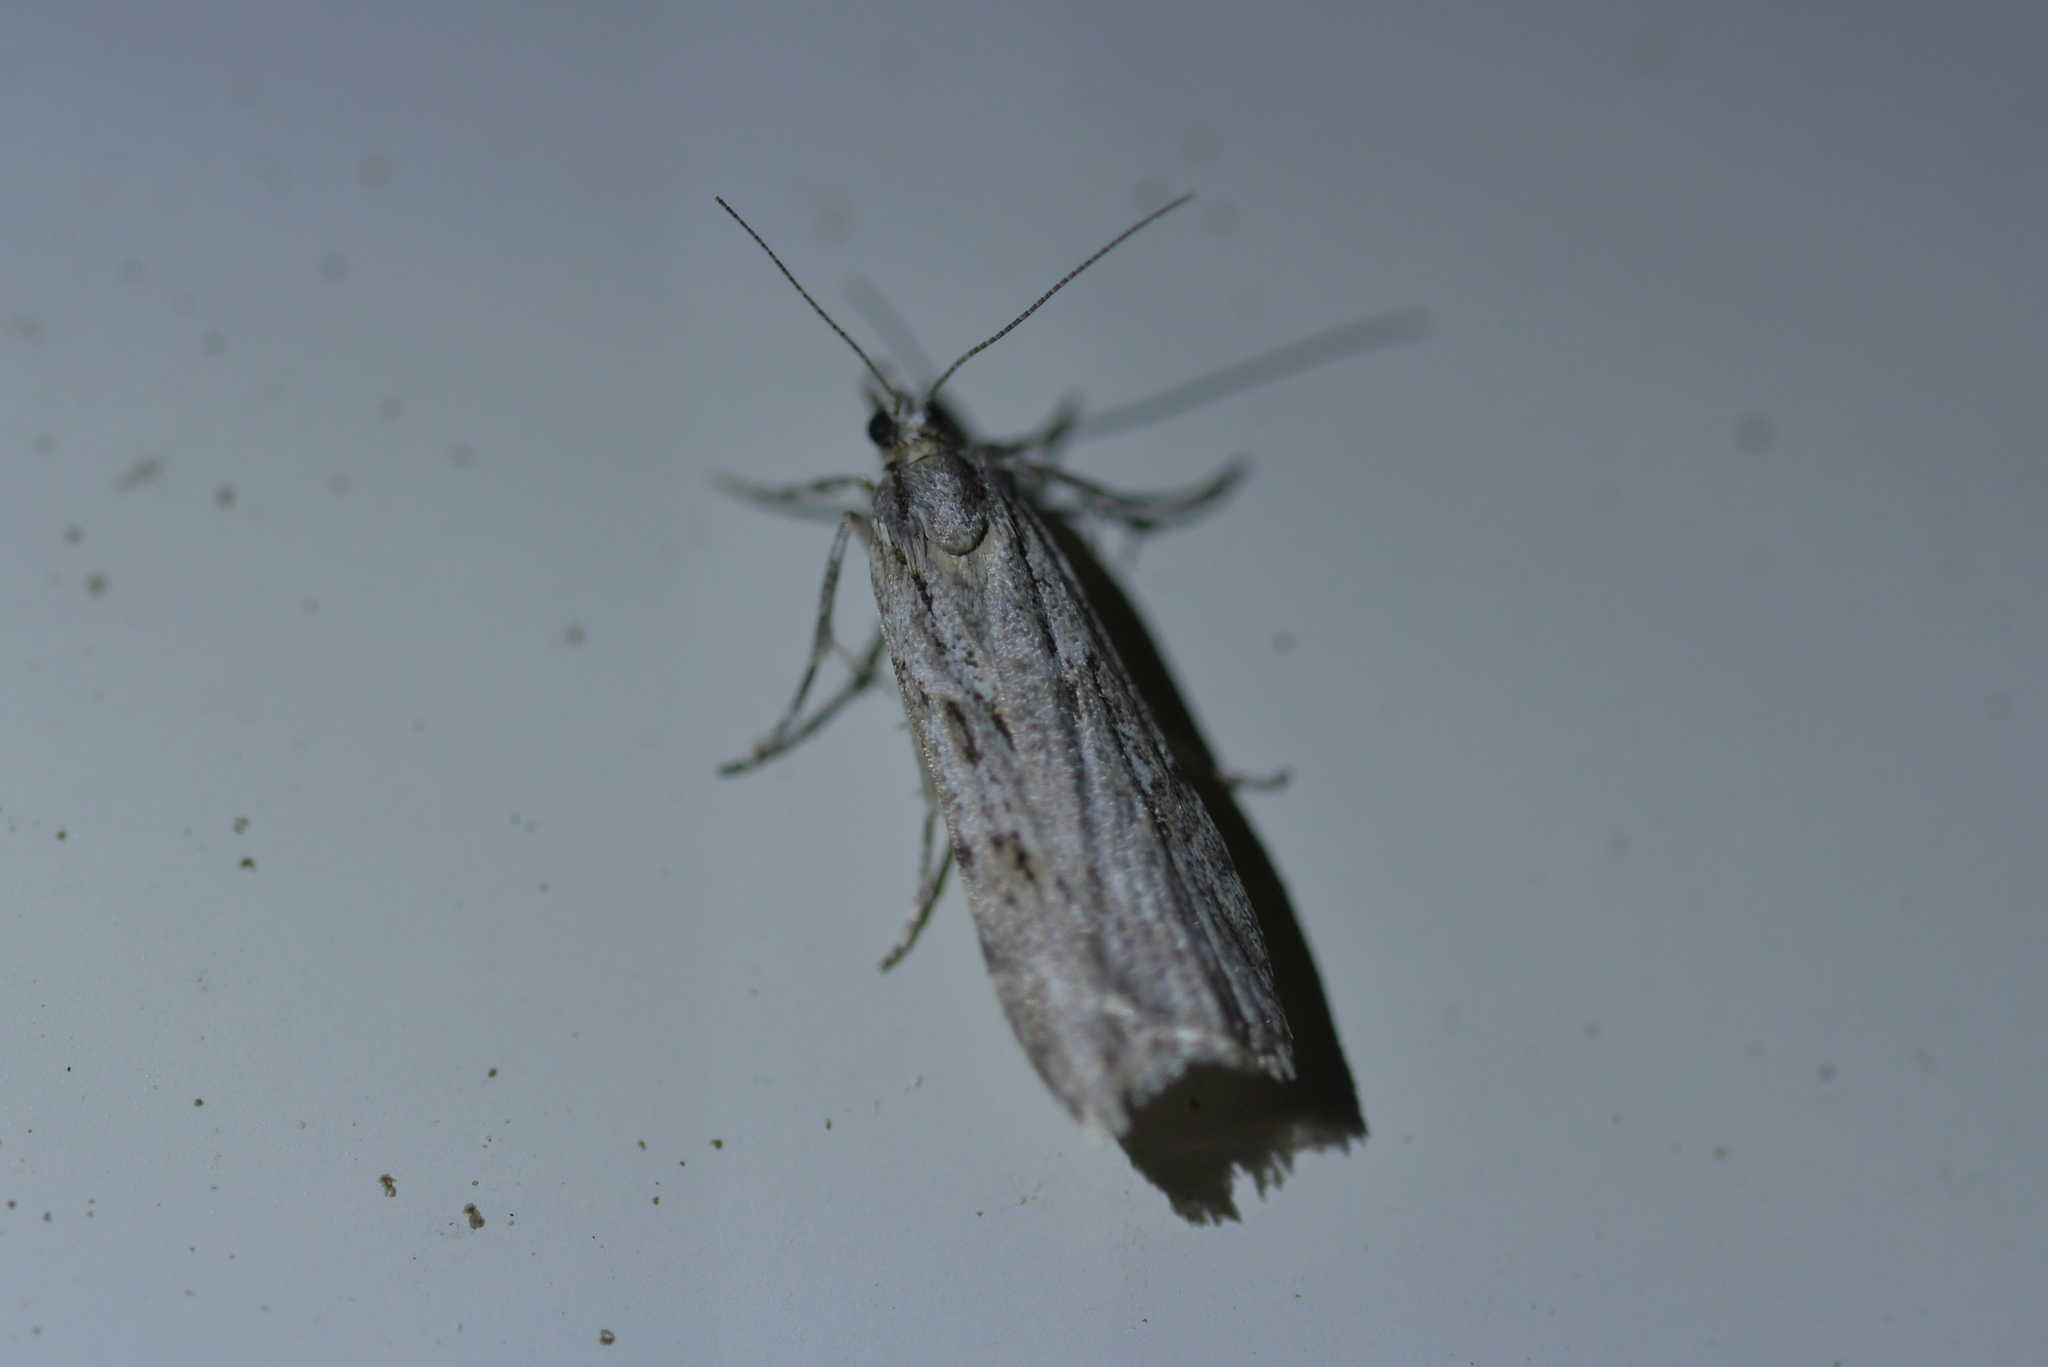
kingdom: Animalia
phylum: Arthropoda
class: Insecta
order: Lepidoptera
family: Crambidae
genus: Scoparia
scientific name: Scoparia chalicodes
